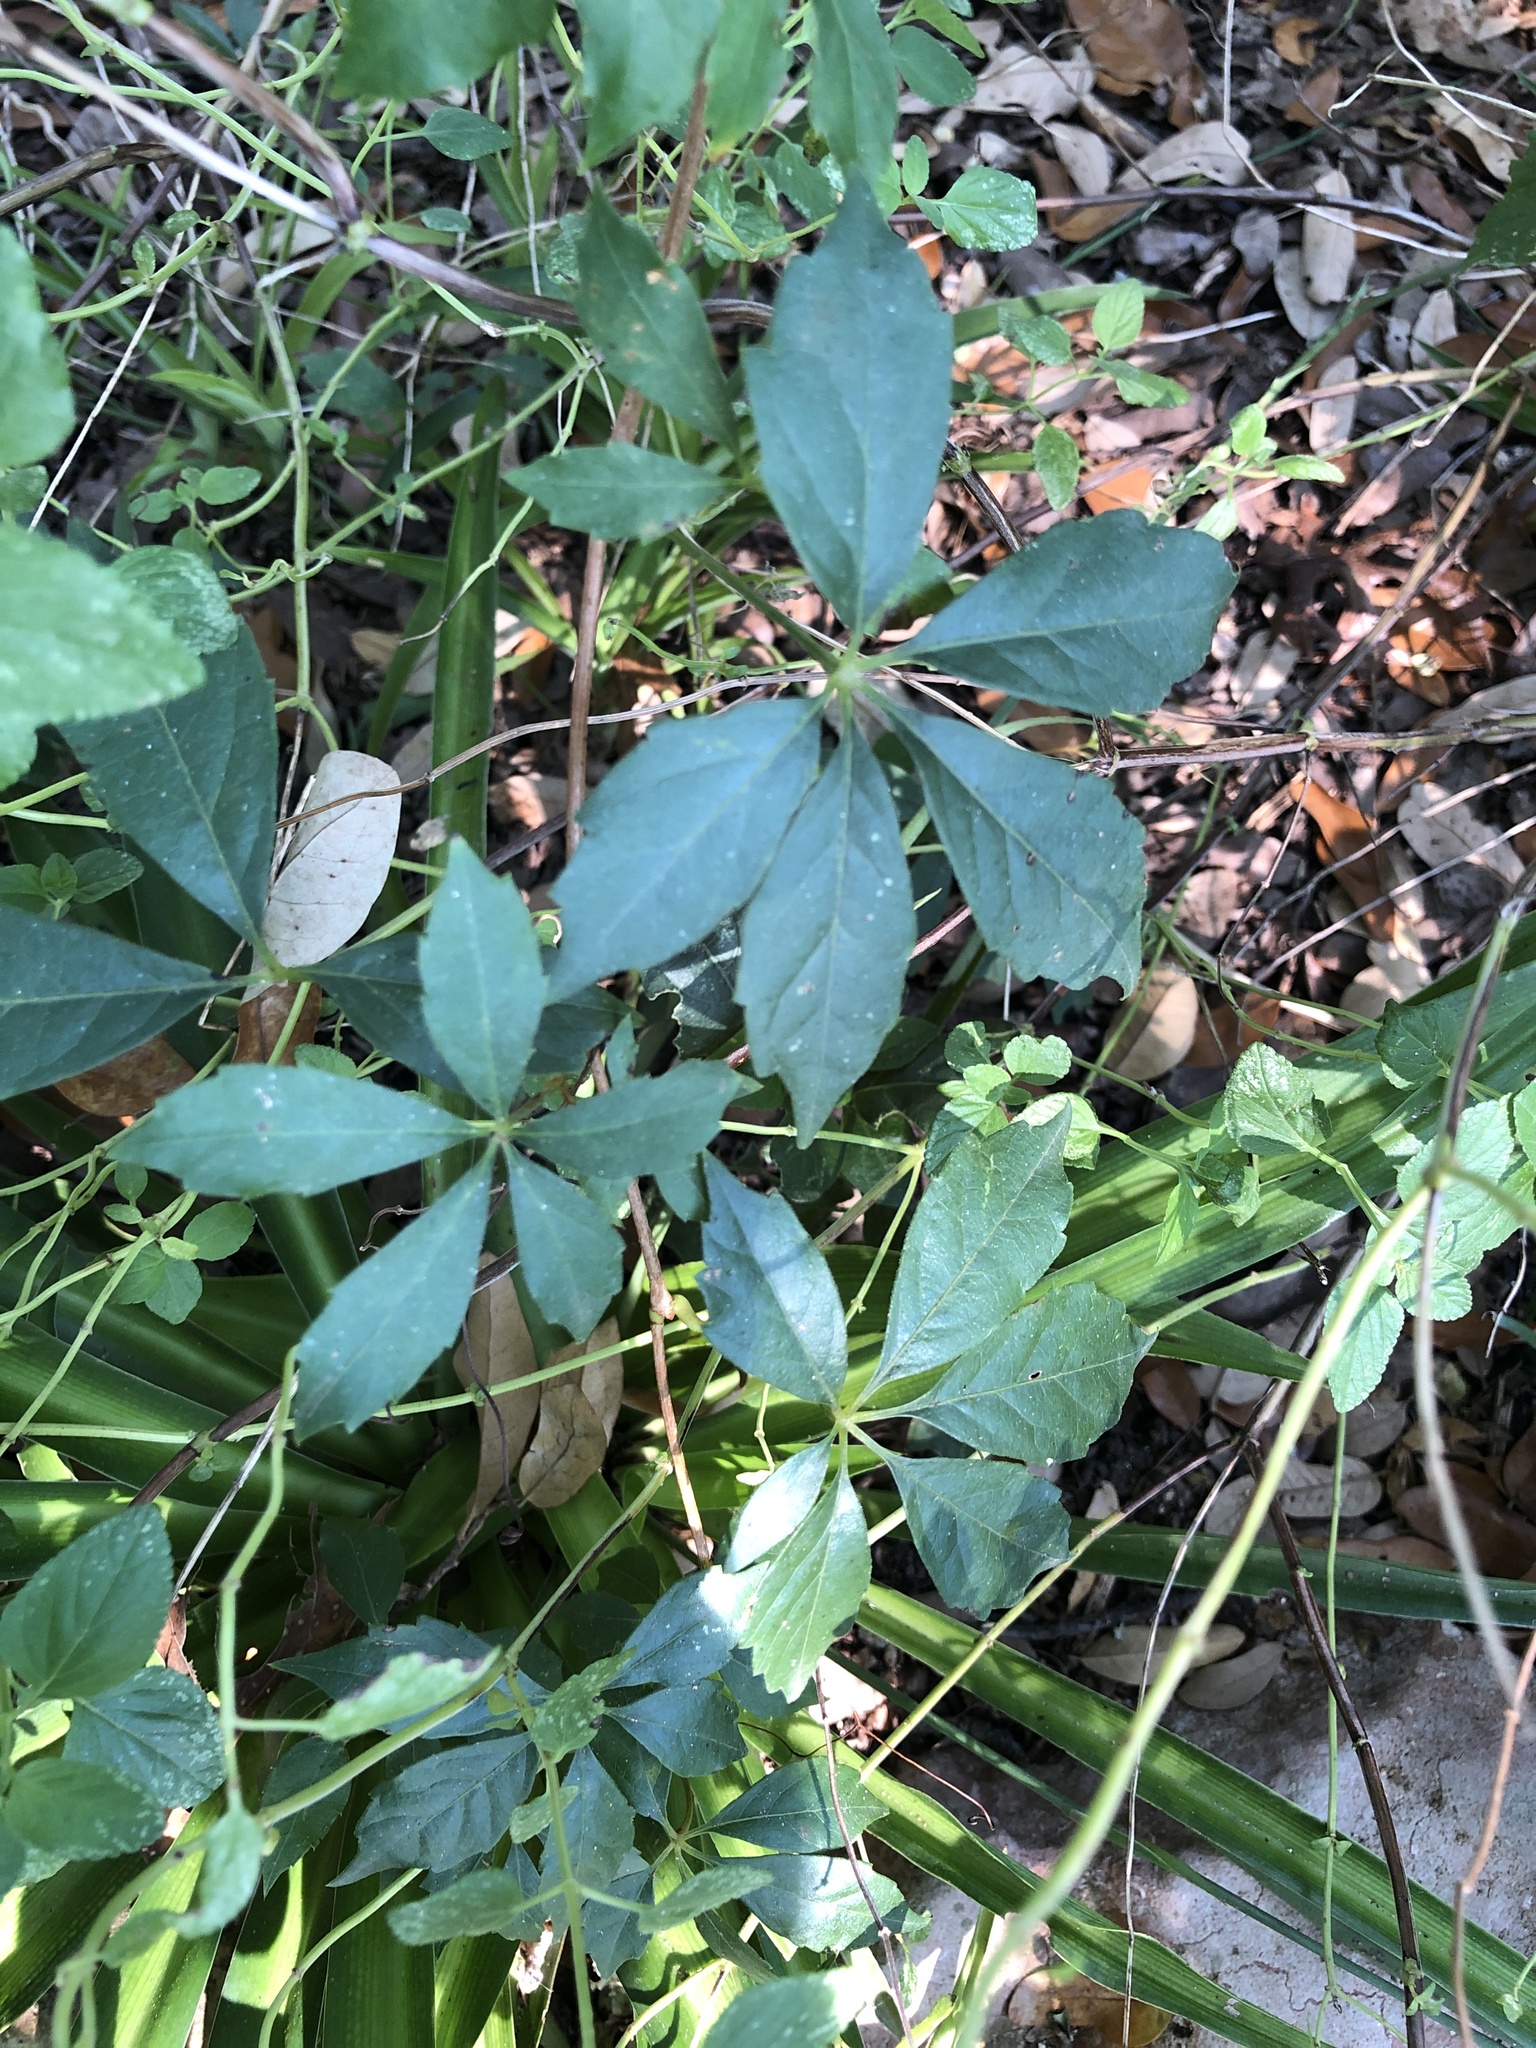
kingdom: Plantae
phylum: Tracheophyta
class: Magnoliopsida
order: Vitales
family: Vitaceae
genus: Parthenocissus
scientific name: Parthenocissus quinquefolia
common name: Virginia-creeper
